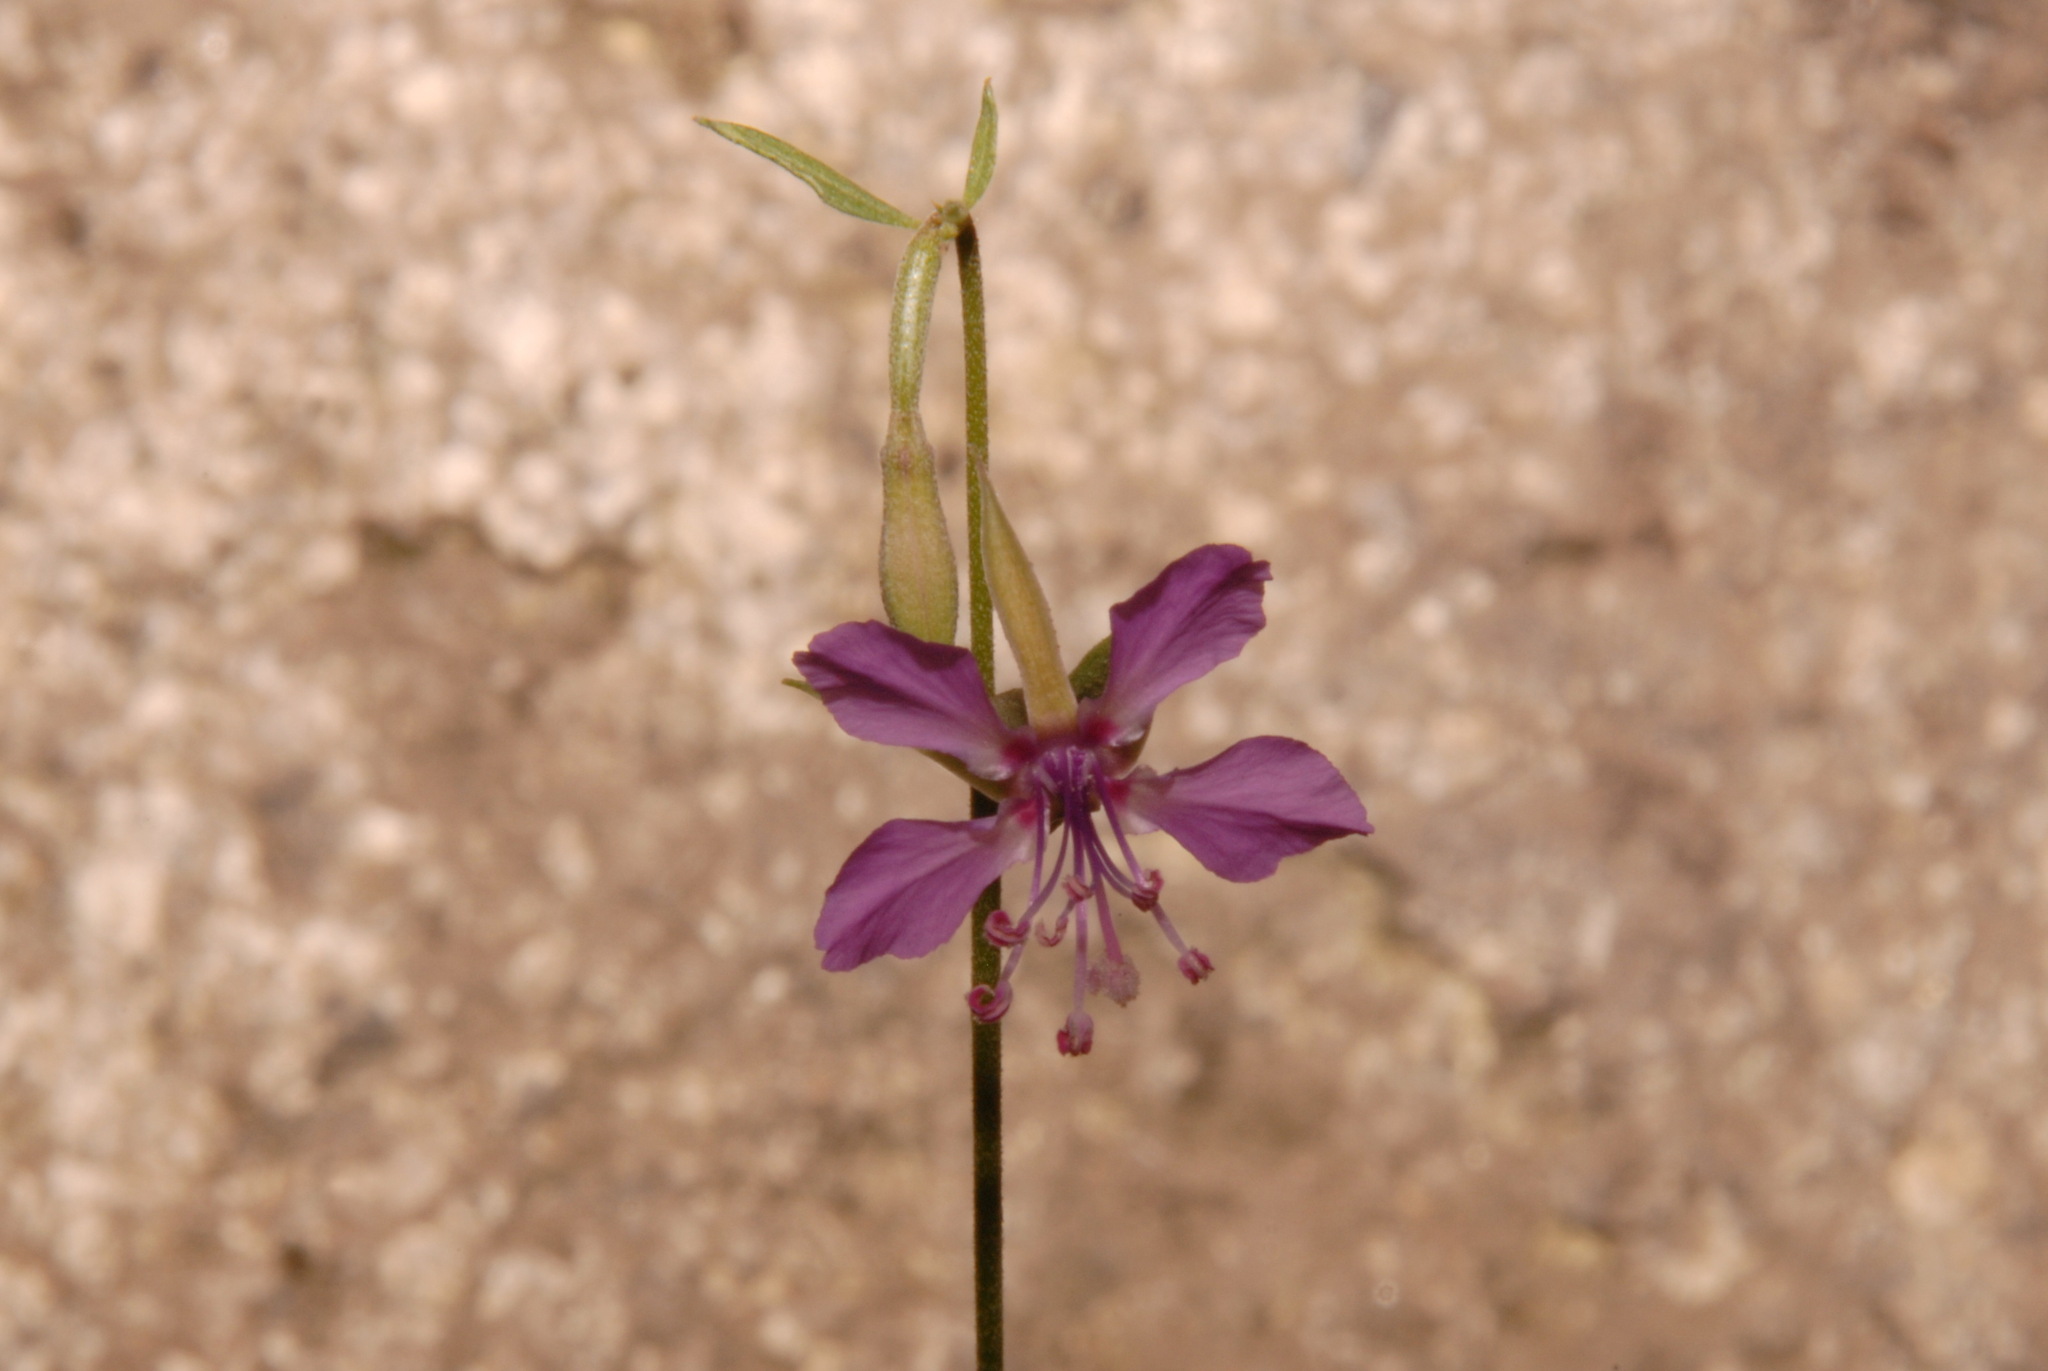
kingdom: Plantae
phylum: Tracheophyta
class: Magnoliopsida
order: Myrtales
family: Onagraceae
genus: Clarkia
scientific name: Clarkia rhomboidea
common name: Broadleaf clarkia
